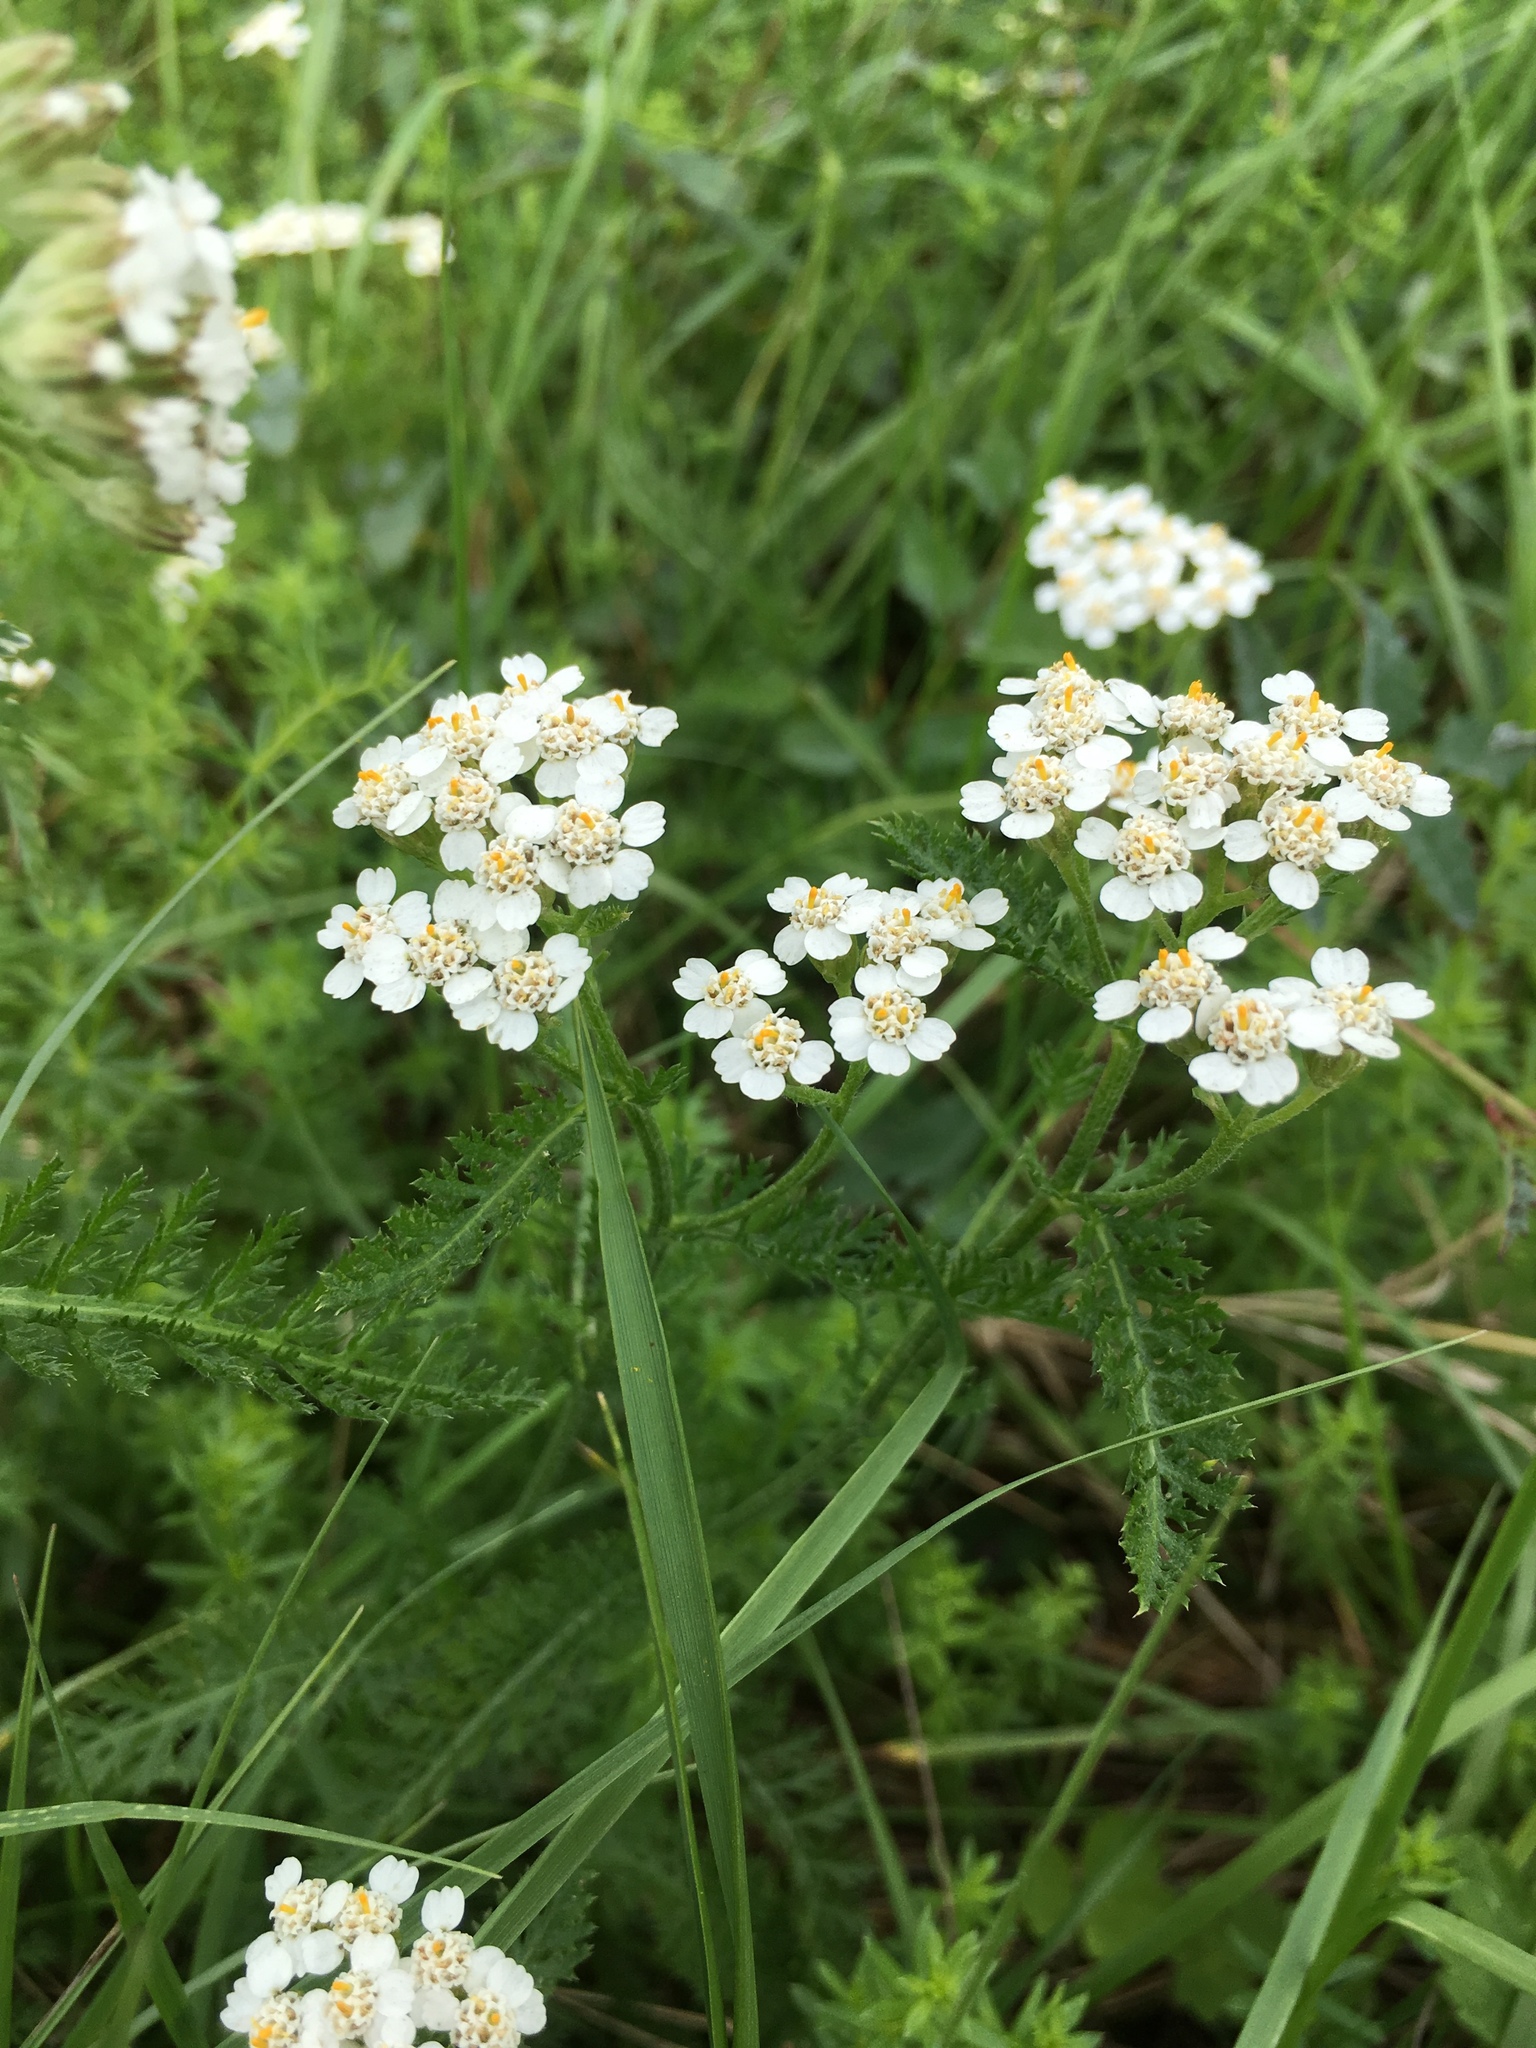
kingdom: Plantae
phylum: Tracheophyta
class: Magnoliopsida
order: Asterales
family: Asteraceae
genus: Achillea
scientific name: Achillea millefolium
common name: Yarrow
